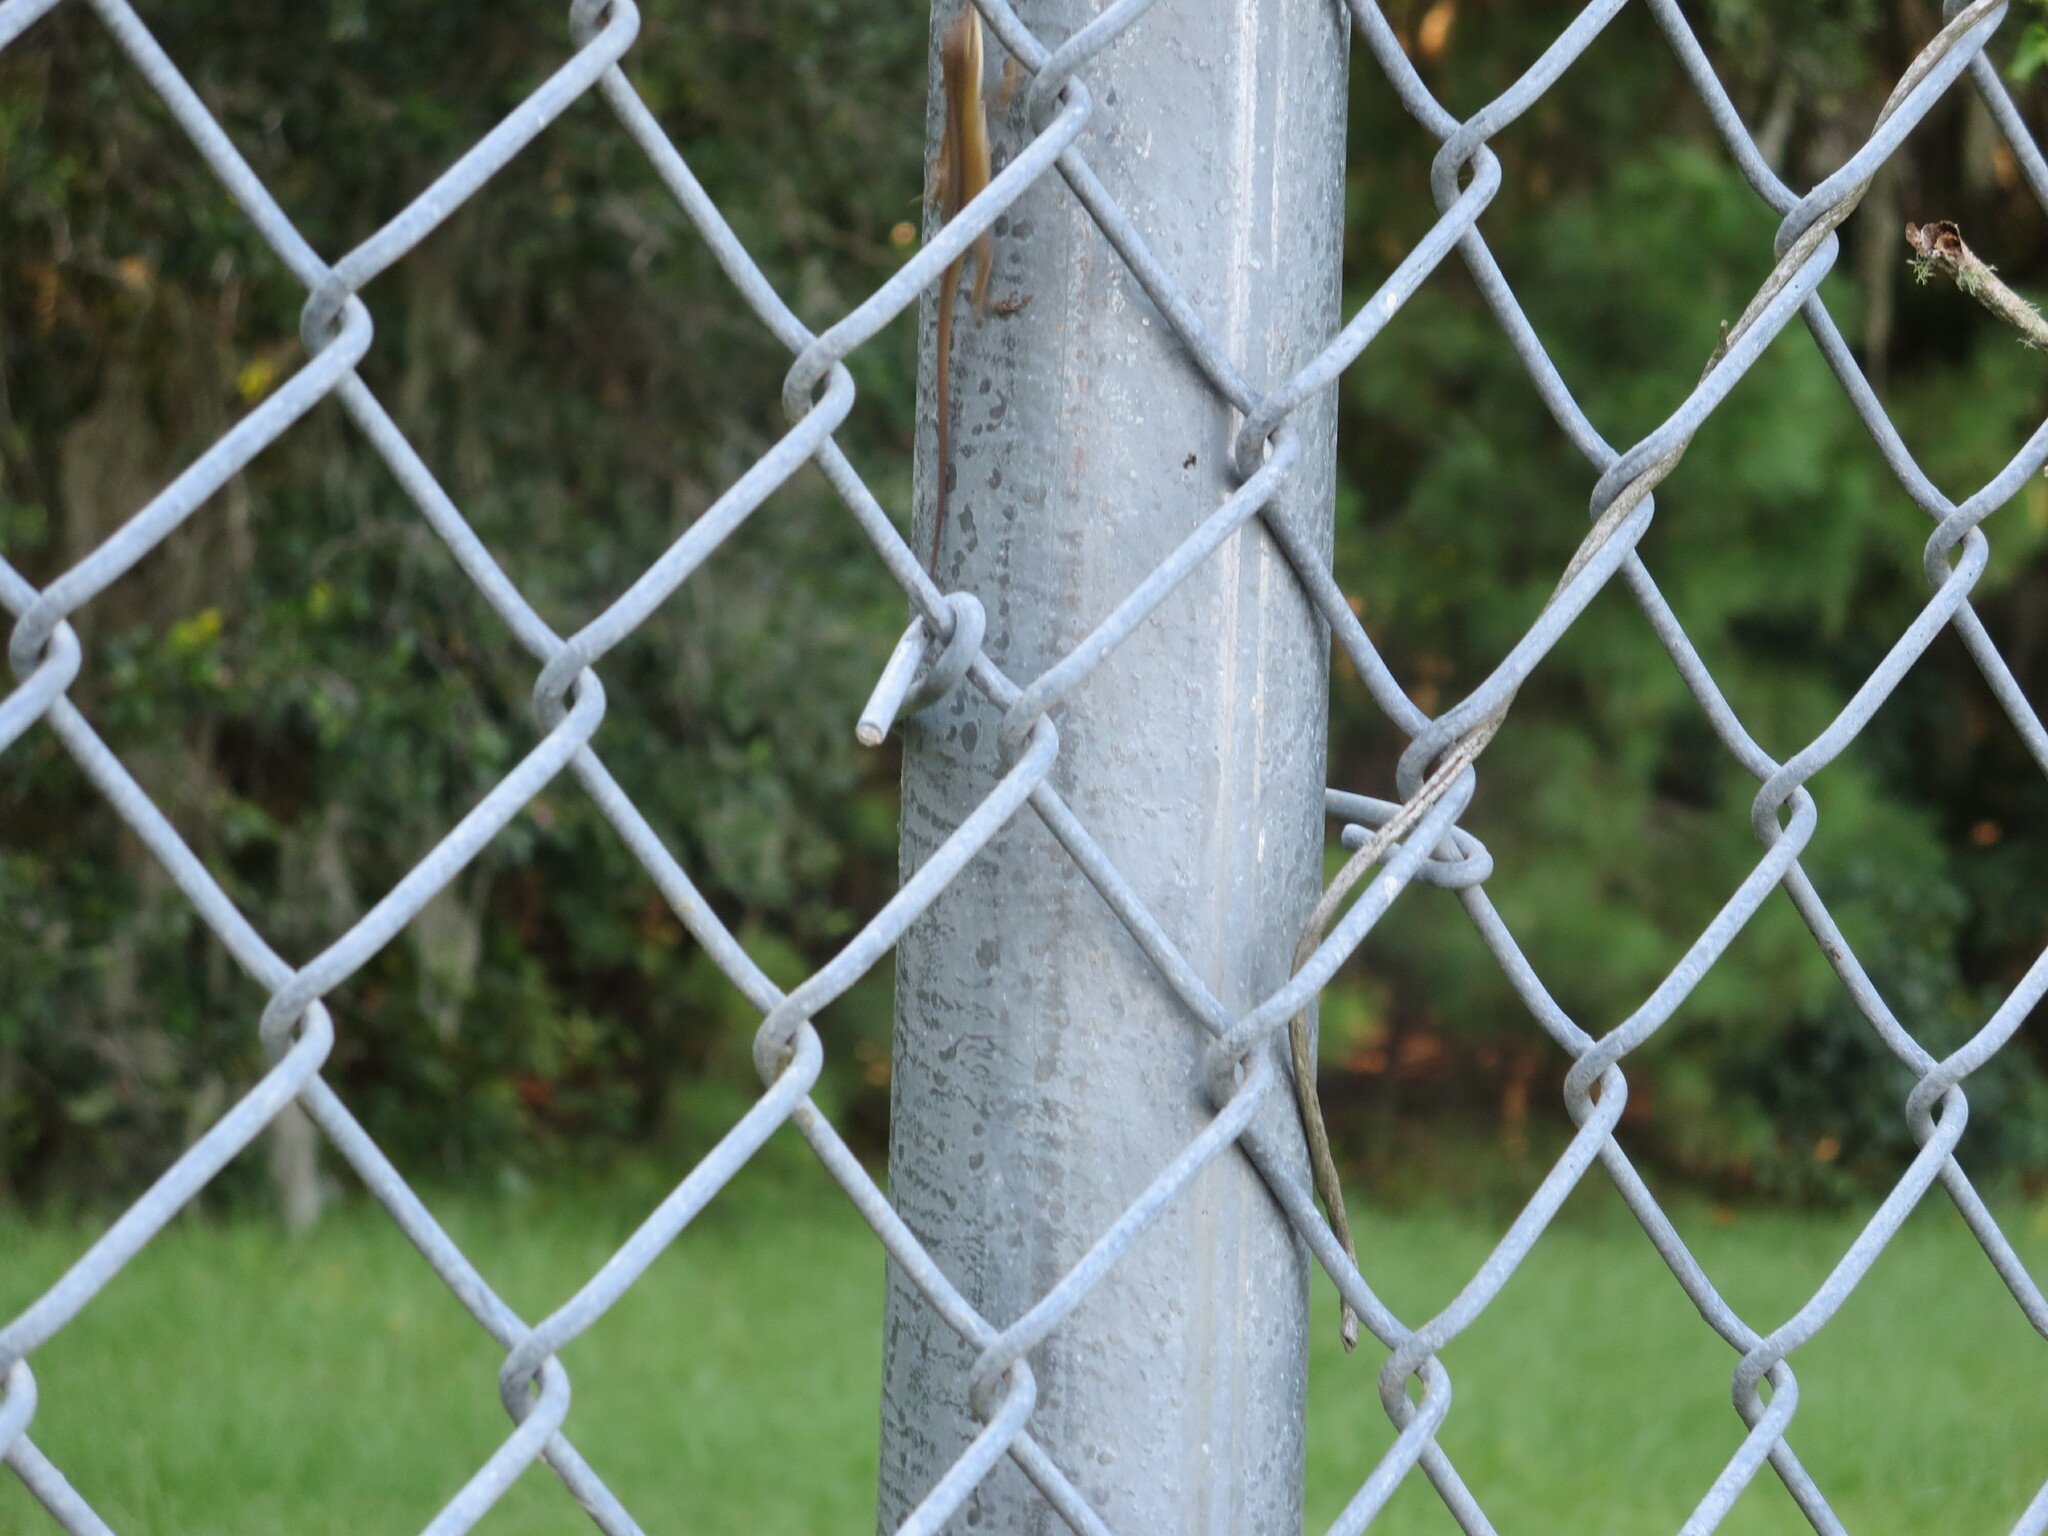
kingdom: Animalia
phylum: Chordata
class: Squamata
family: Dactyloidae
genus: Anolis
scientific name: Anolis carolinensis
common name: Green anole
